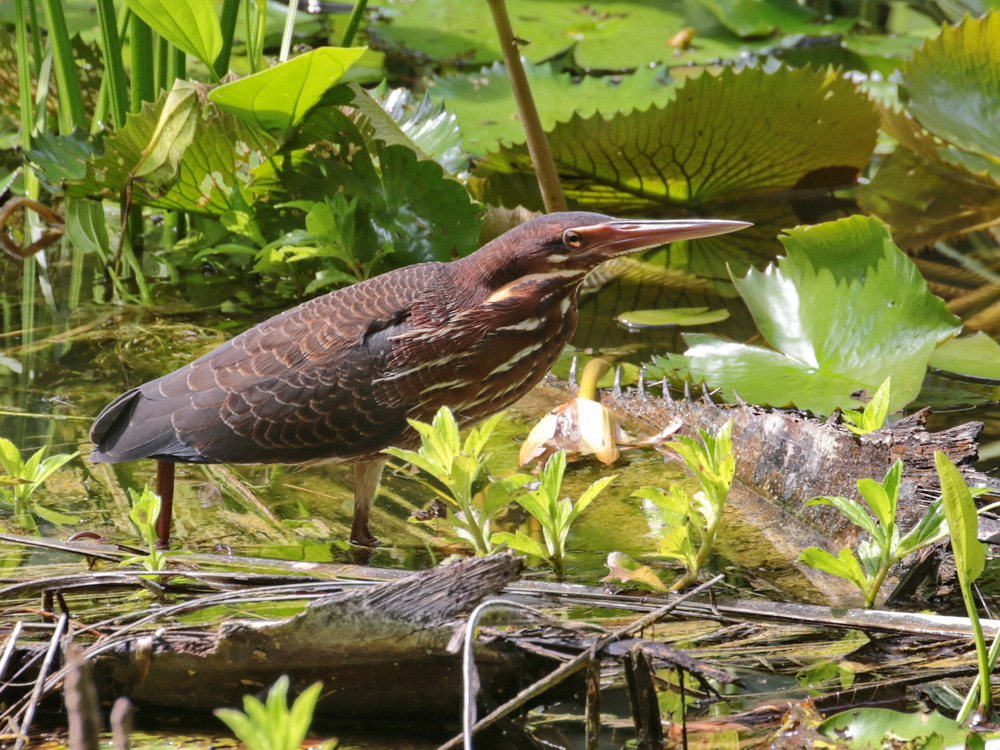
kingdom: Animalia
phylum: Chordata
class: Aves
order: Pelecaniformes
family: Ardeidae
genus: Dupetor
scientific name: Dupetor flavicollis
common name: Black bittern
